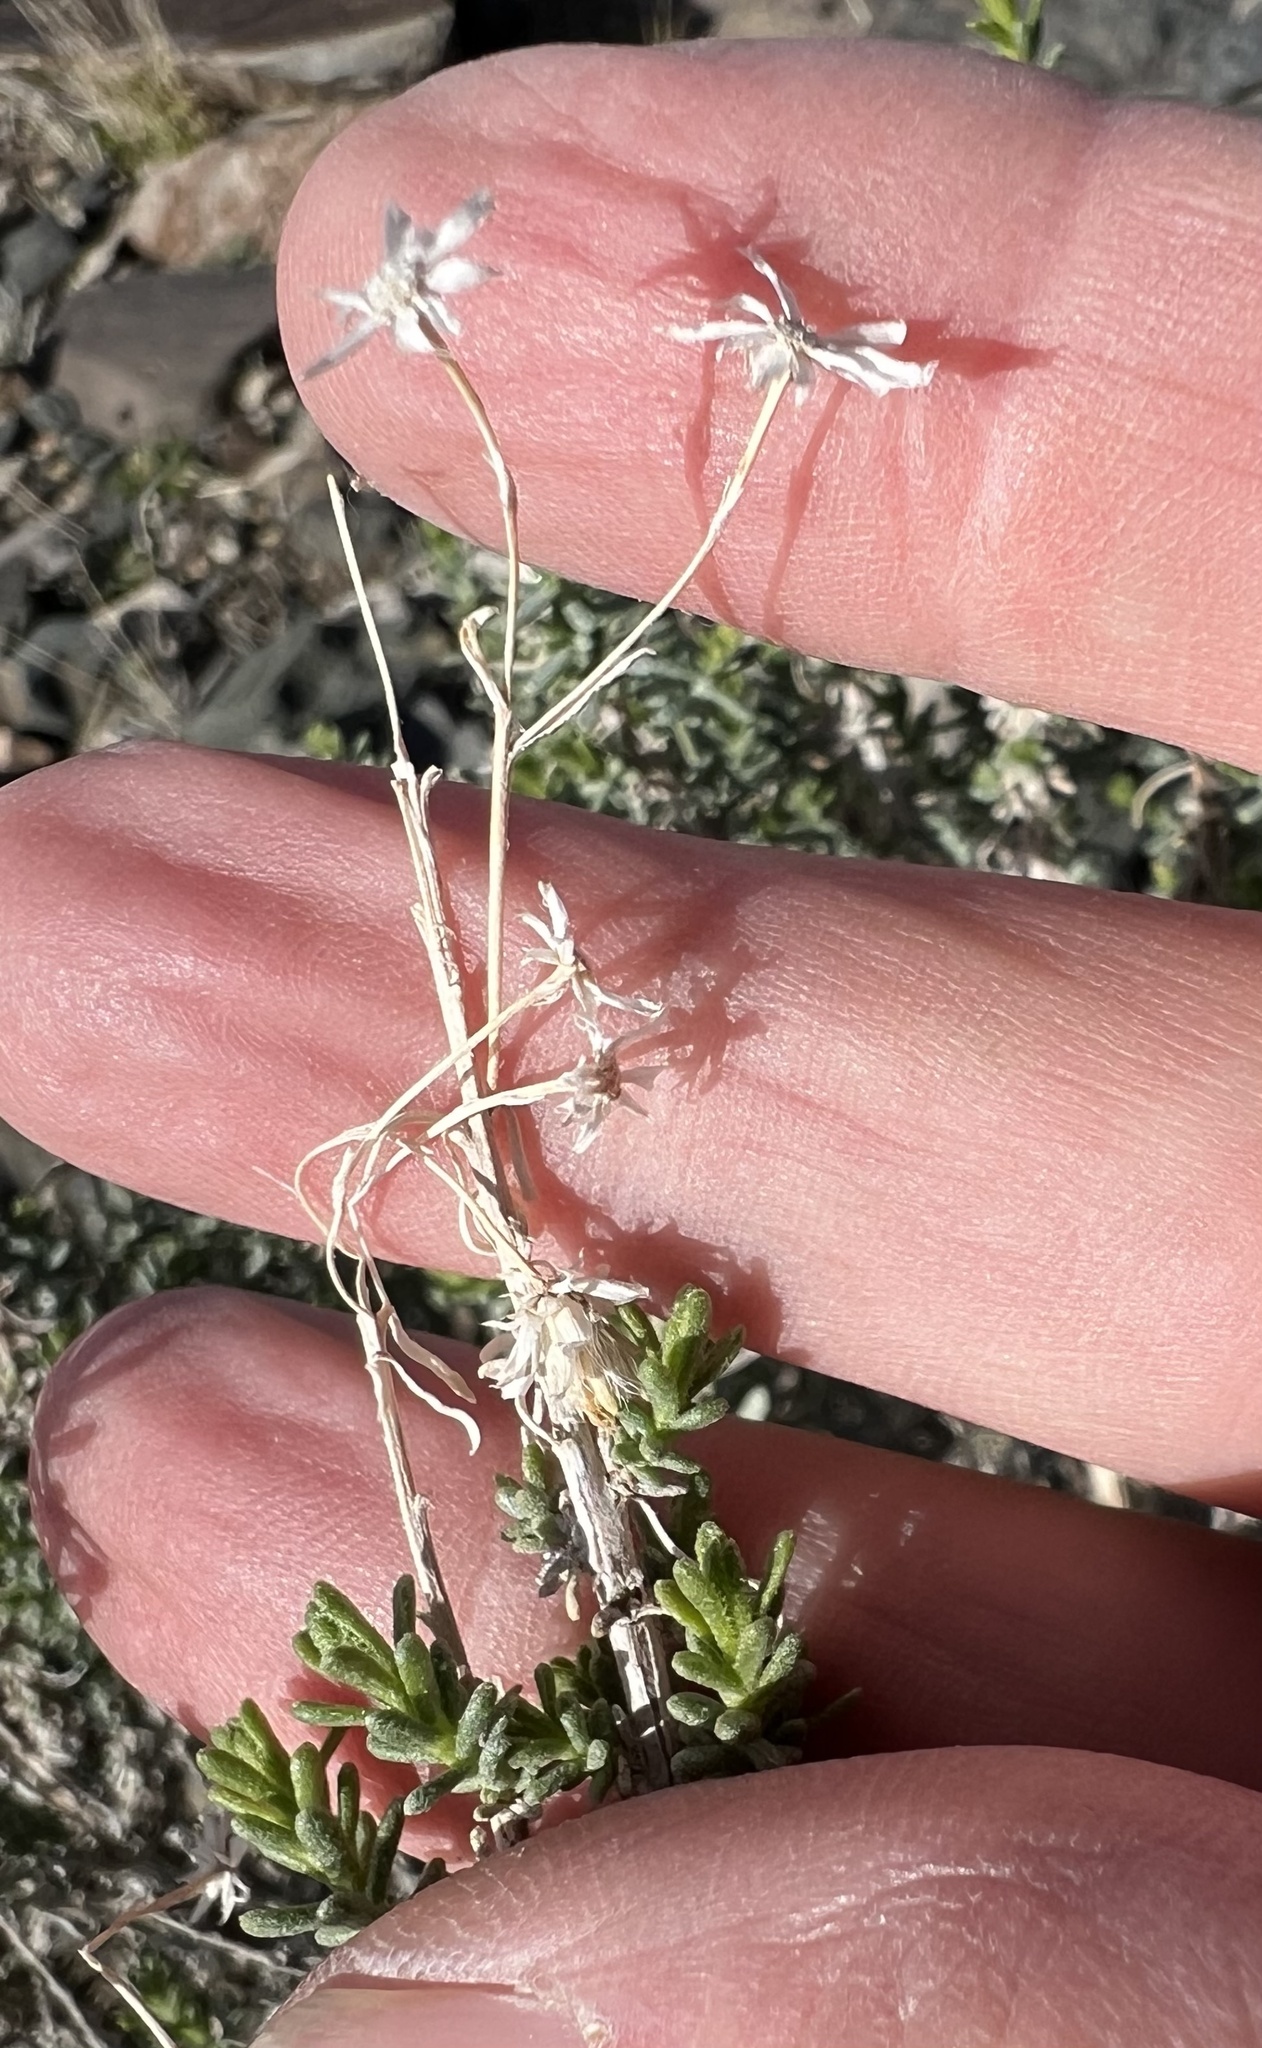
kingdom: Plantae
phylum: Tracheophyta
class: Magnoliopsida
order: Asterales
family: Asteraceae
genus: Ericameria
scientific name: Ericameria cooperi
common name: Cooper's goldenbush
